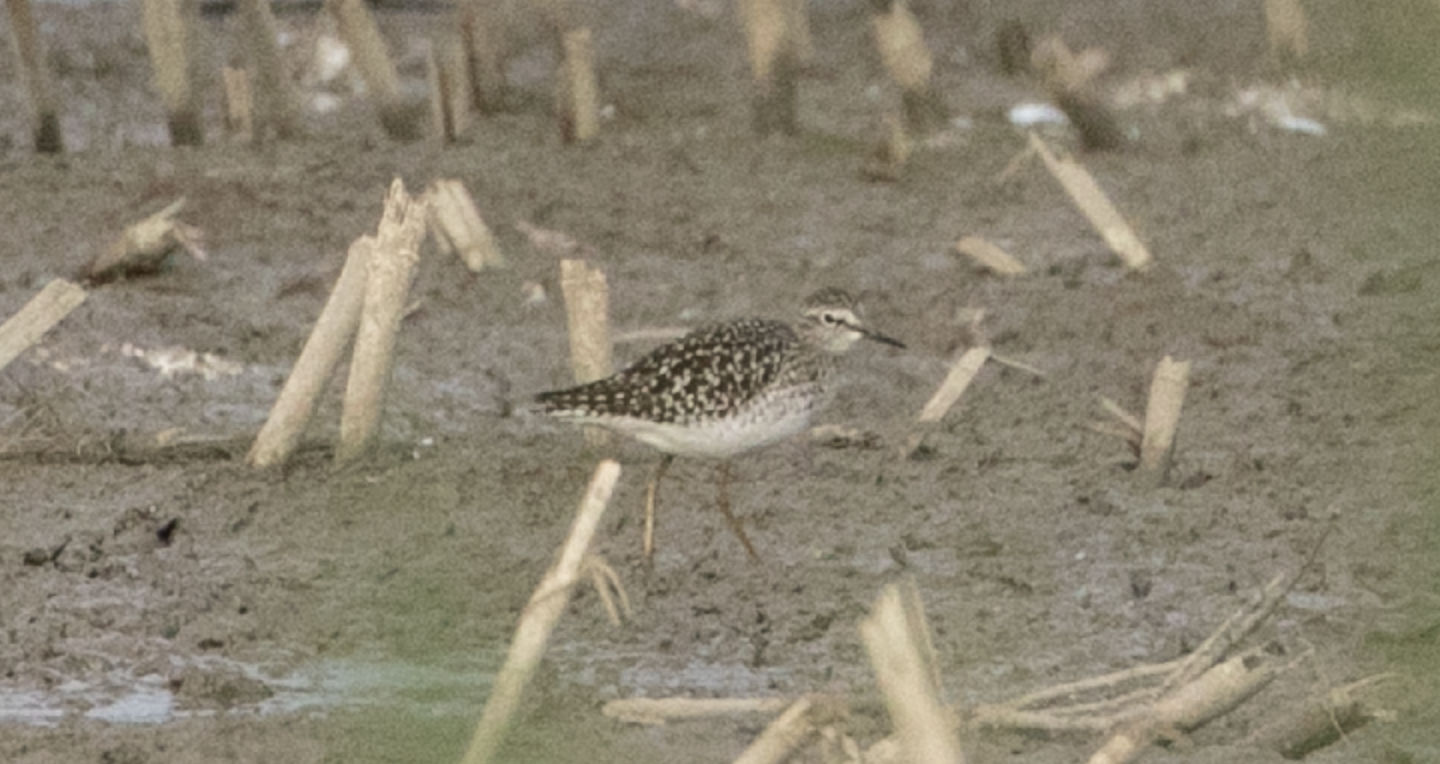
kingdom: Animalia
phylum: Chordata
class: Aves
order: Charadriiformes
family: Scolopacidae
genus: Tringa
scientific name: Tringa glareola
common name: Wood sandpiper
